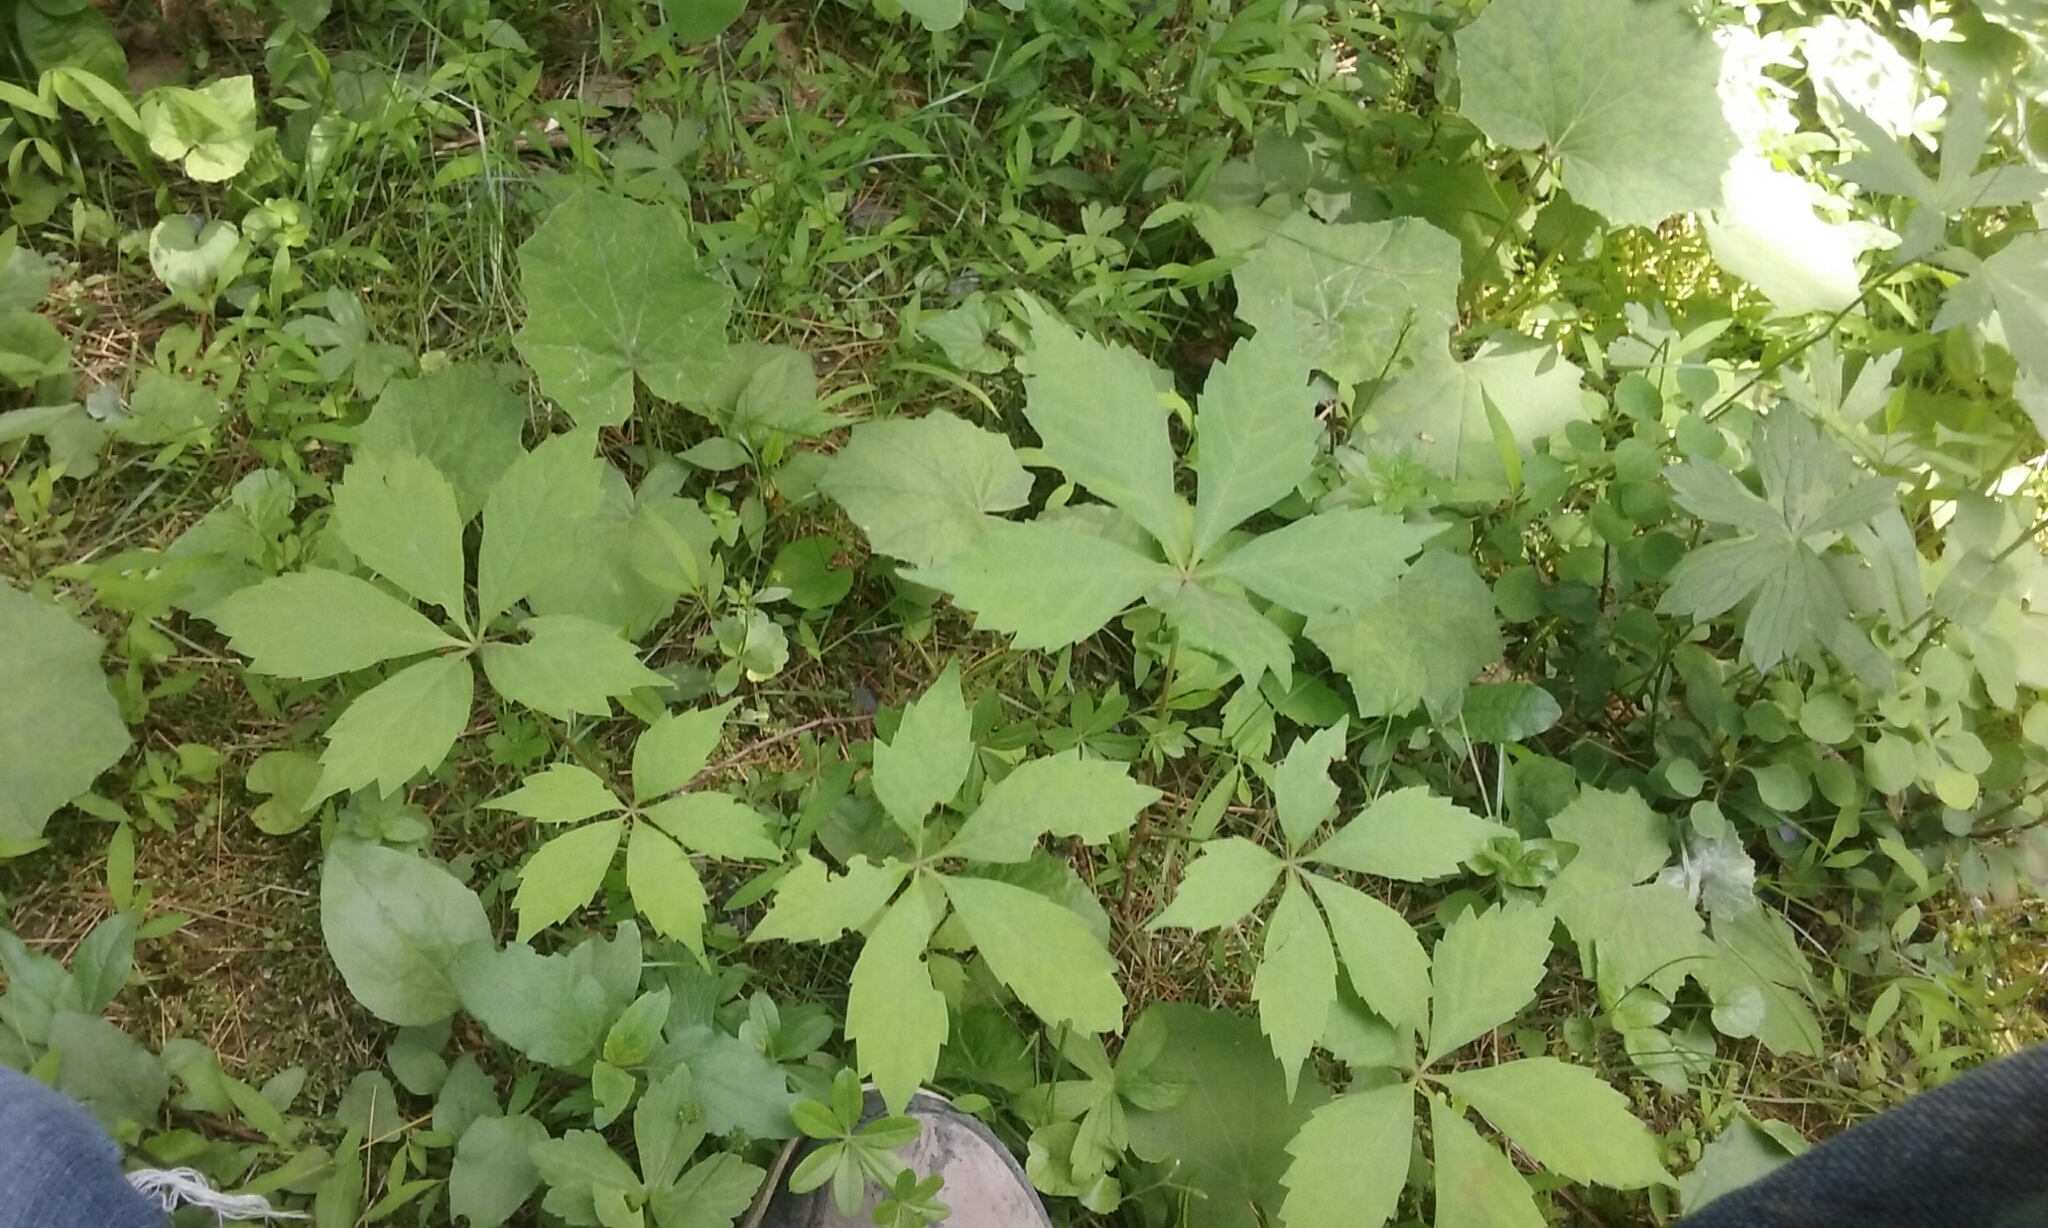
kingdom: Plantae
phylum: Tracheophyta
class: Magnoliopsida
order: Vitales
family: Vitaceae
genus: Parthenocissus
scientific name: Parthenocissus quinquefolia
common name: Virginia-creeper
